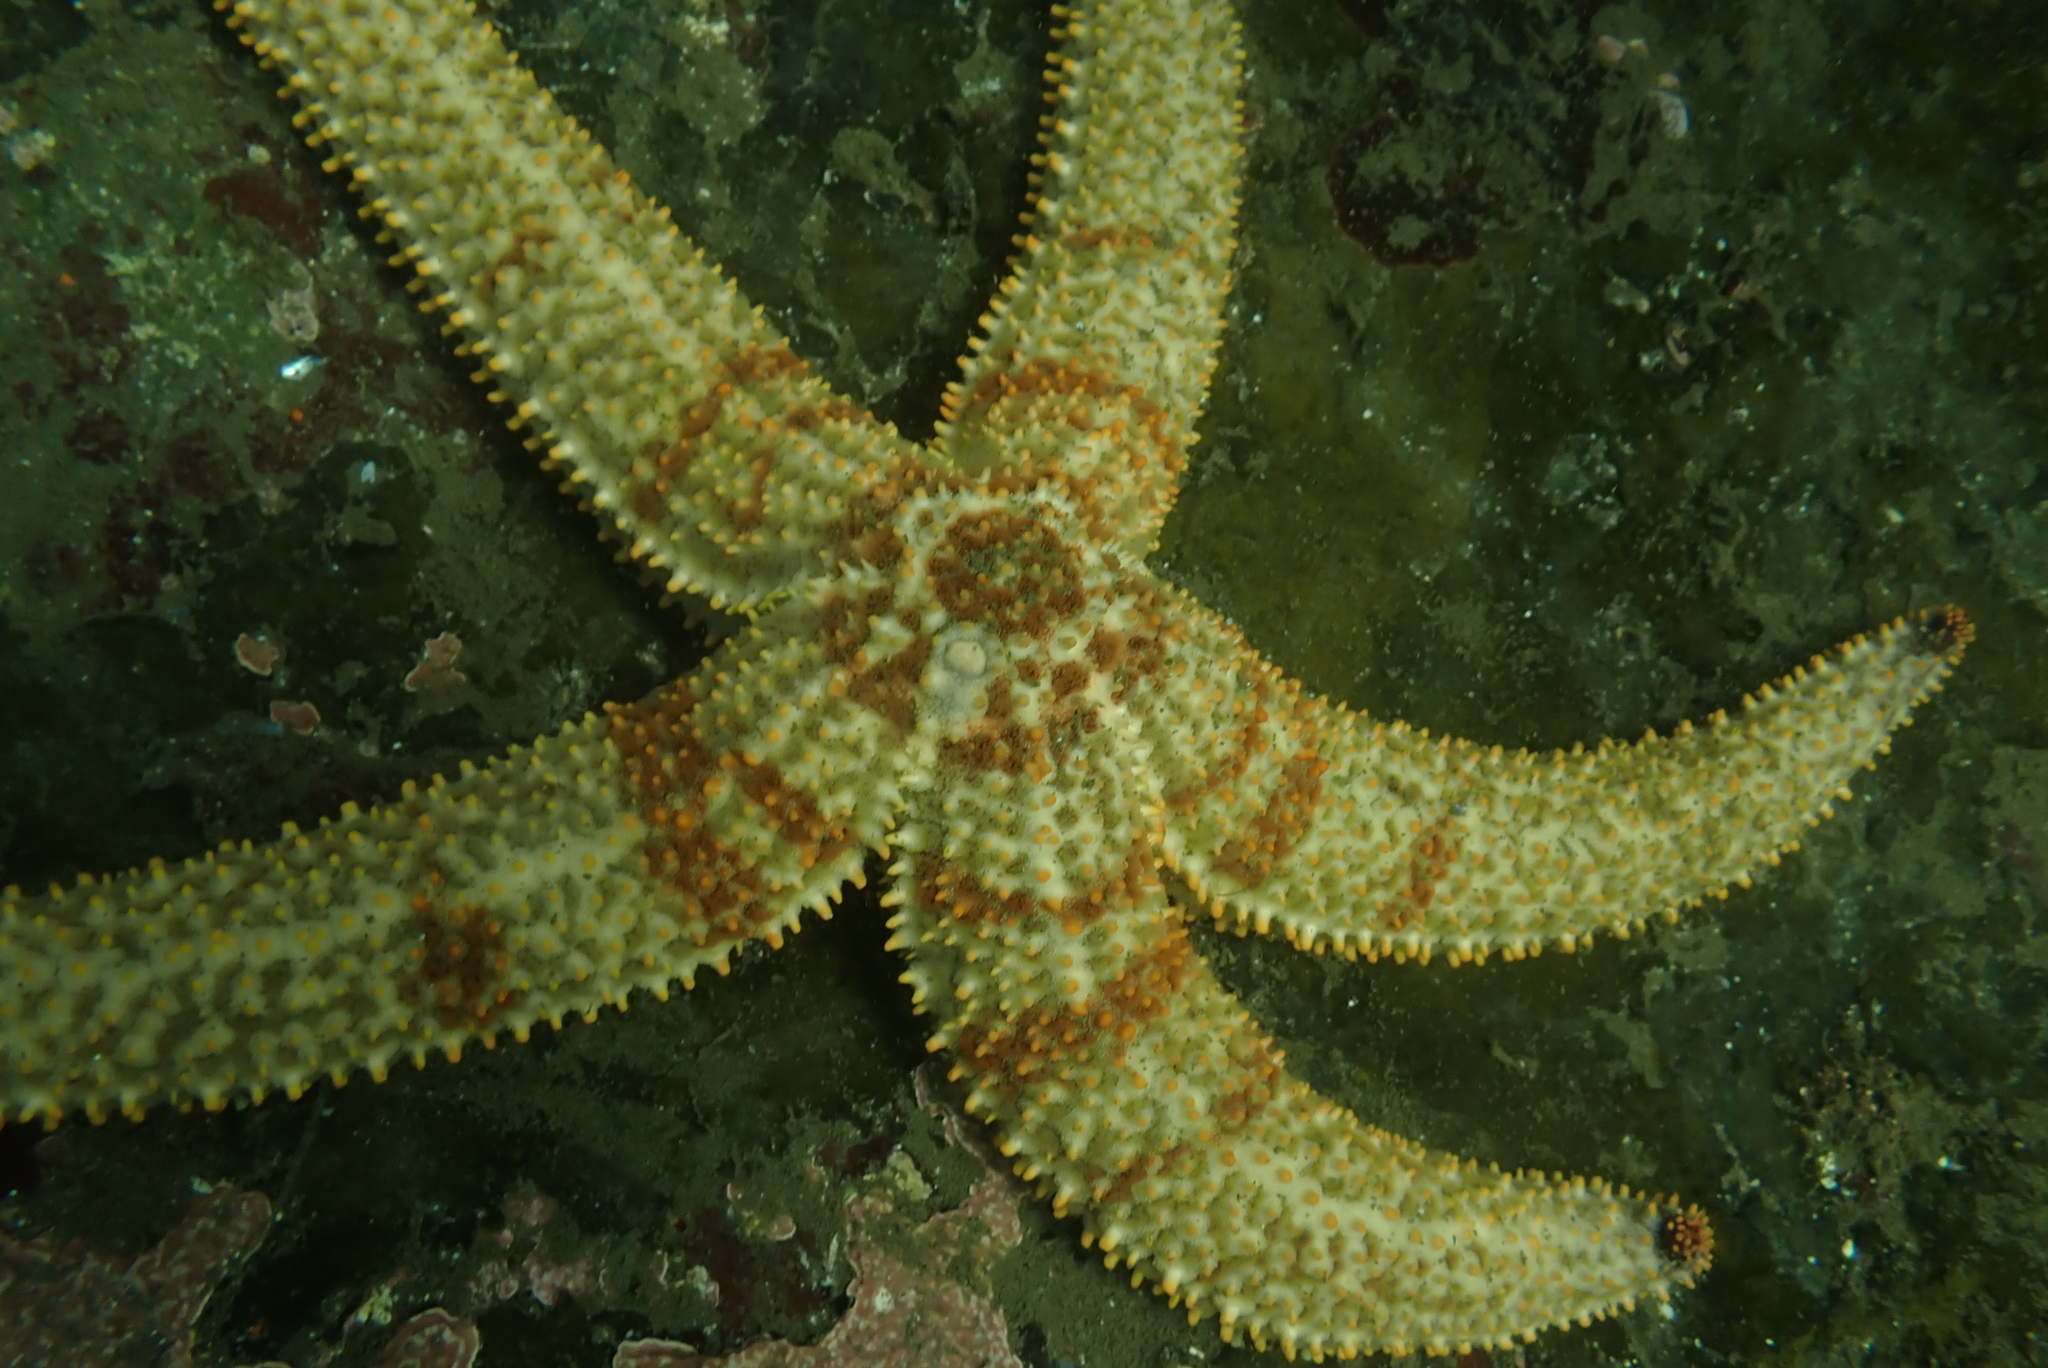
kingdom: Animalia
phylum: Echinodermata
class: Asteroidea
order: Forcipulatida
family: Asteriidae
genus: Marthasterias
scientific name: Marthasterias africana
